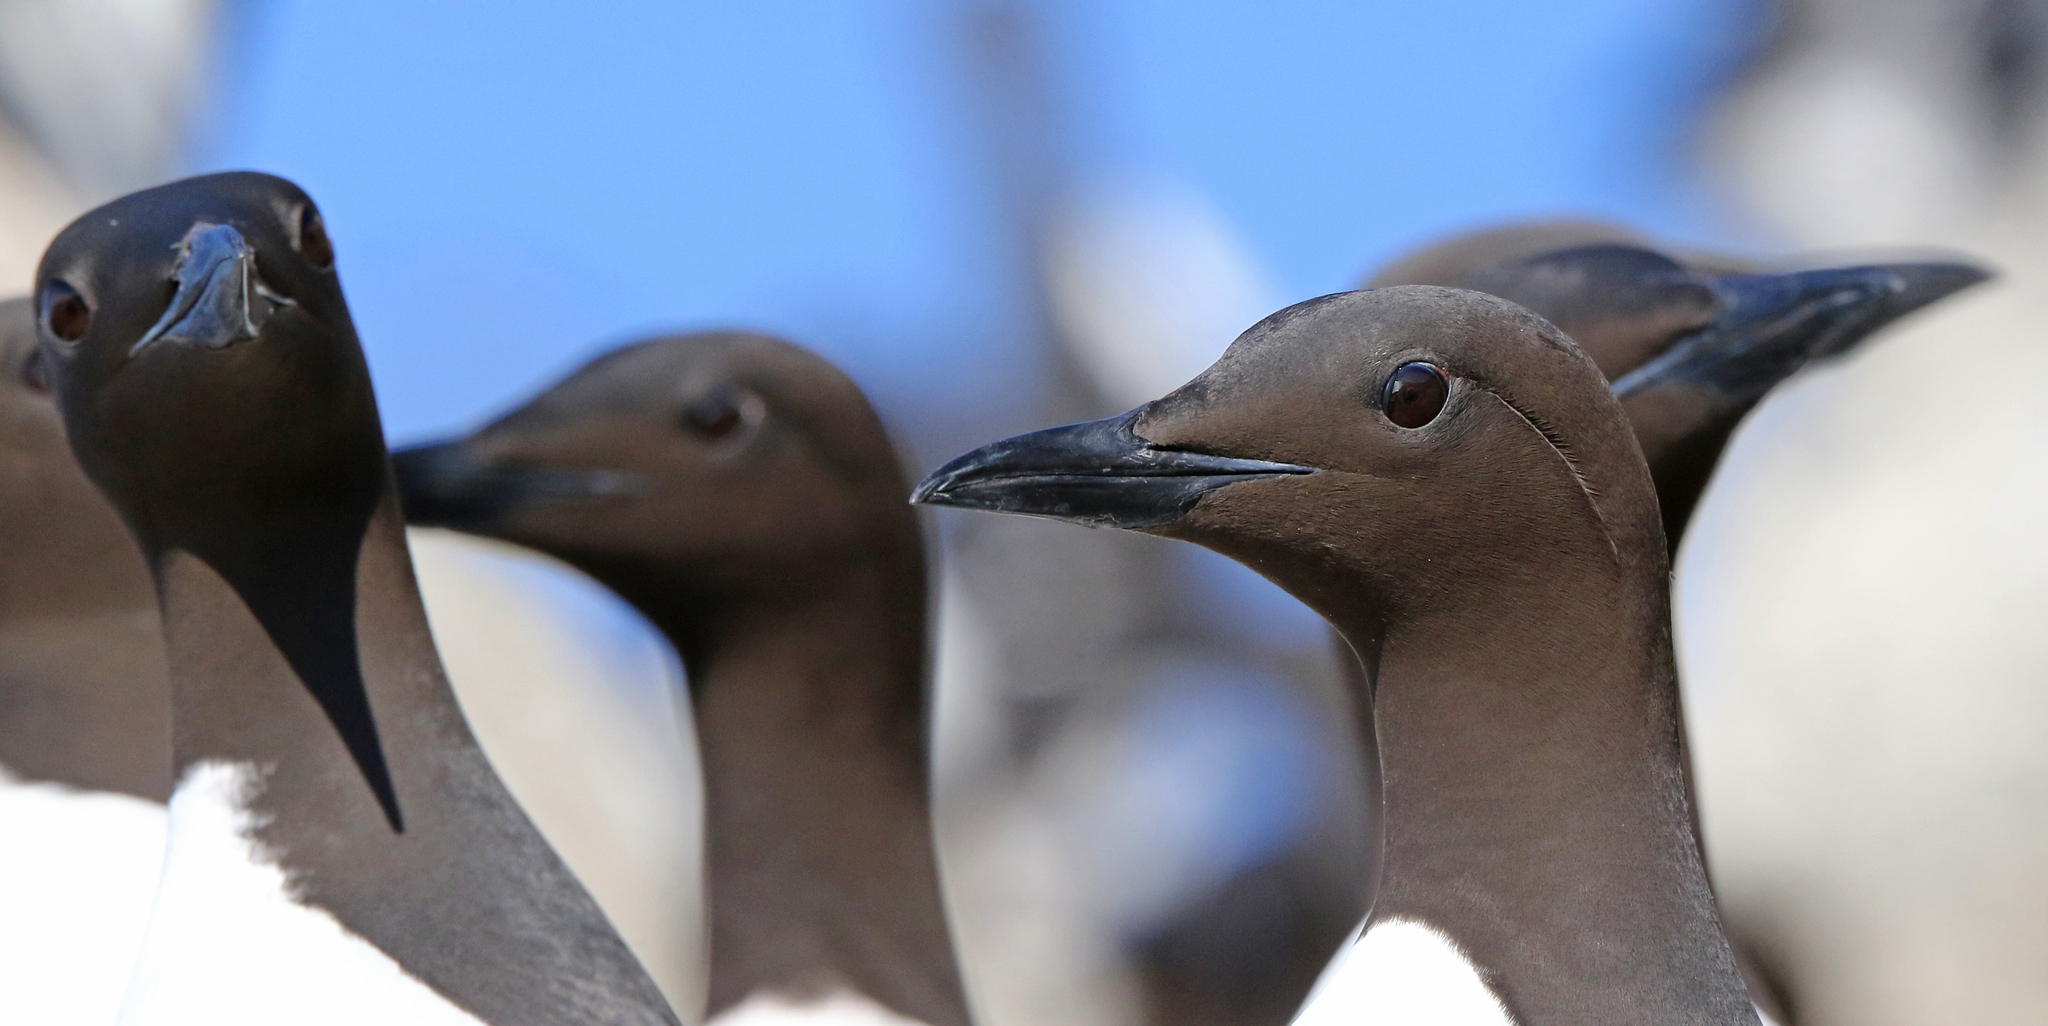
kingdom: Animalia
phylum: Chordata
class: Aves
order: Charadriiformes
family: Alcidae
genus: Uria
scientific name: Uria aalge
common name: Common murre
